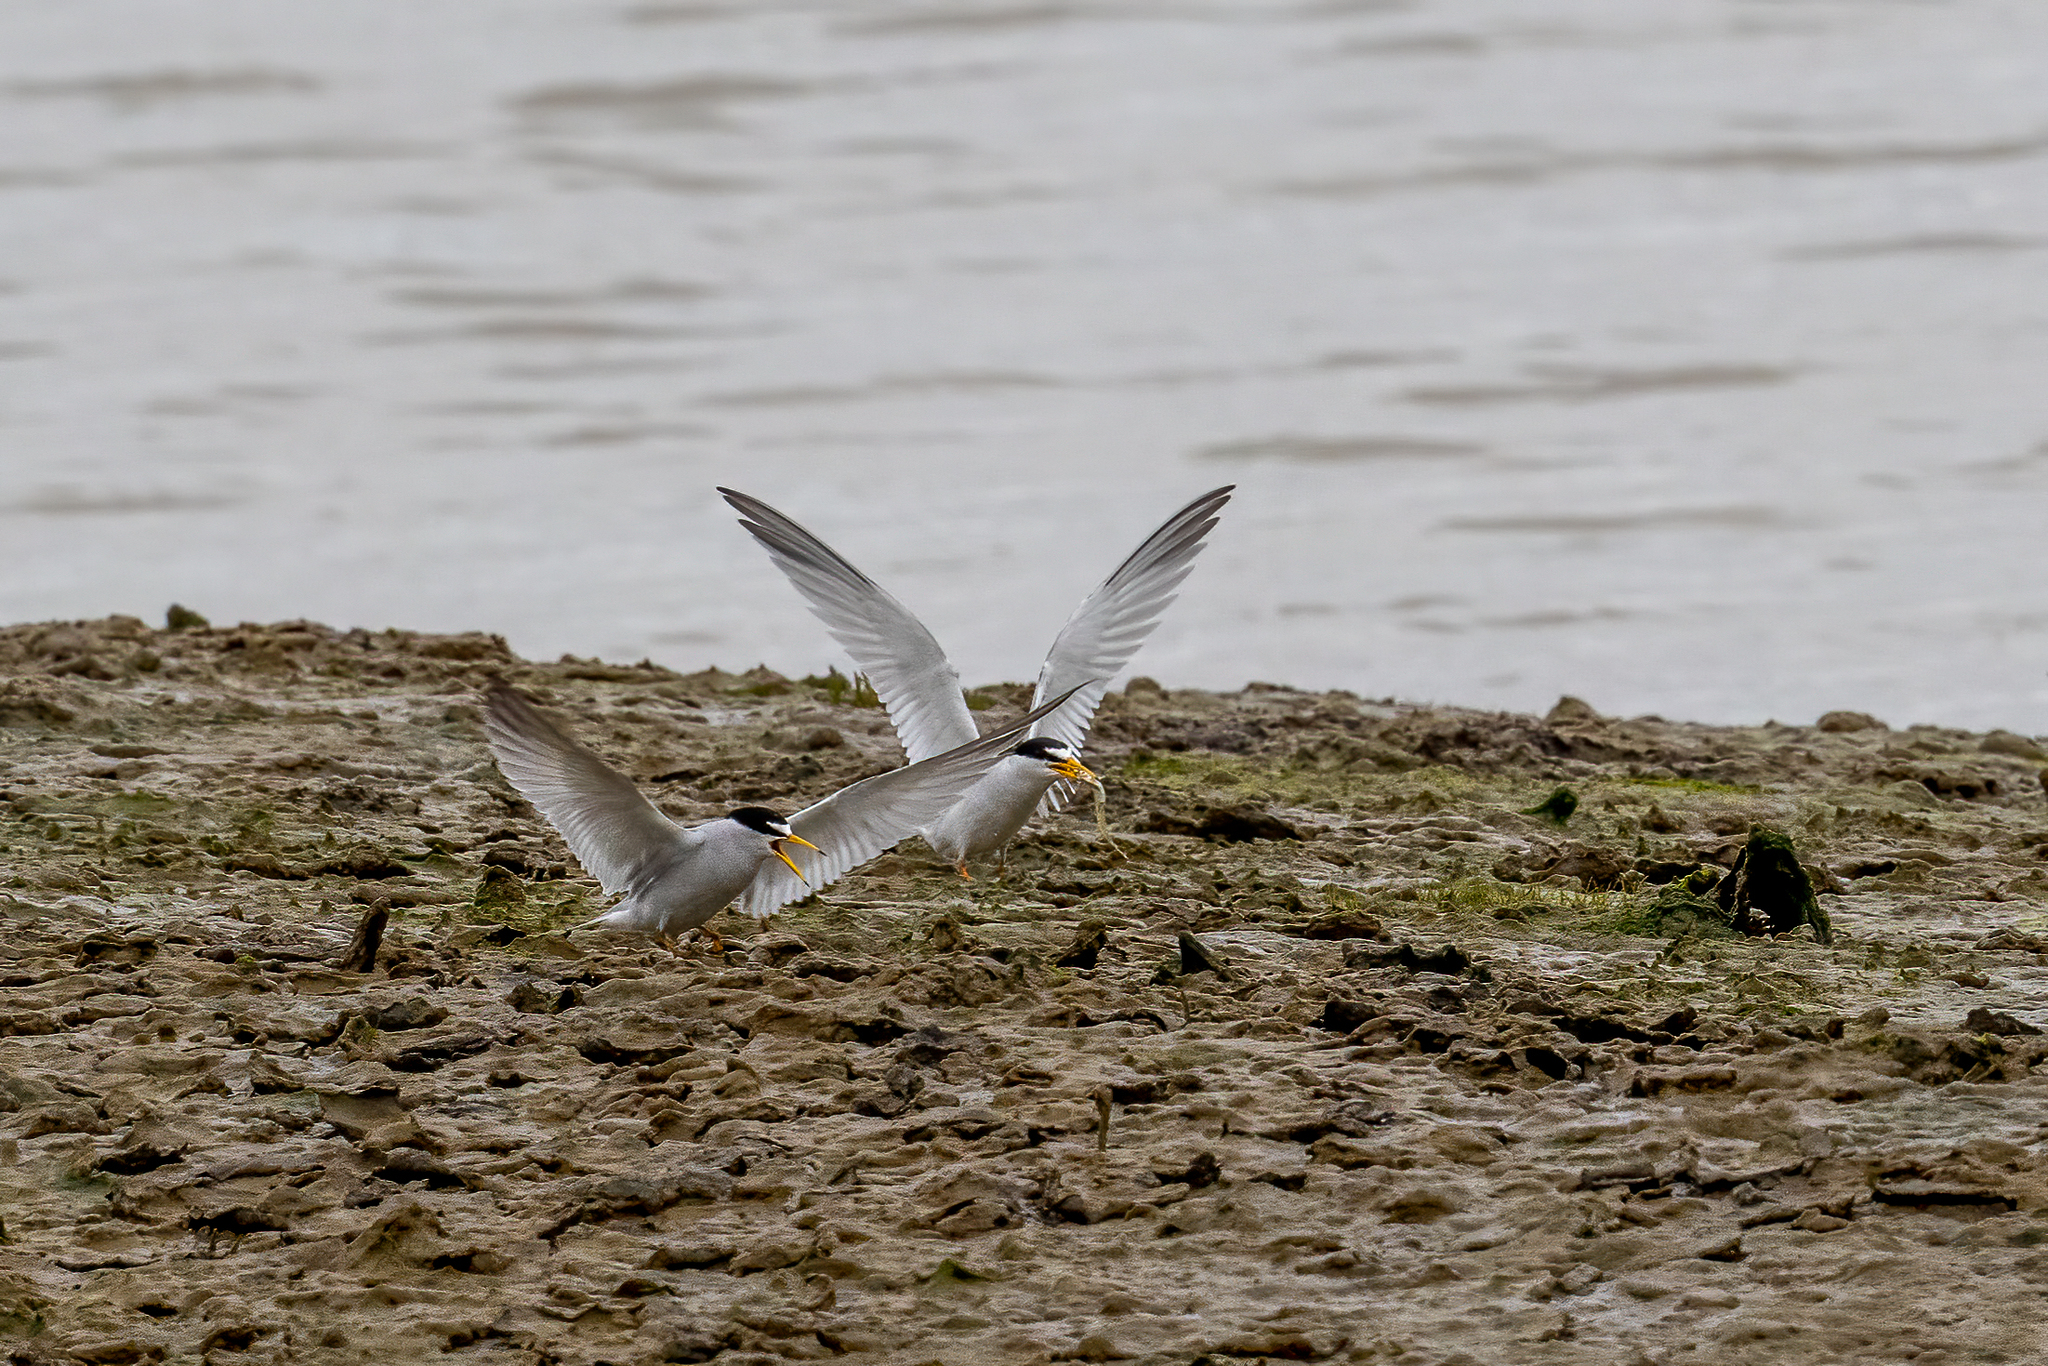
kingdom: Animalia
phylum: Chordata
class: Aves
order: Charadriiformes
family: Laridae
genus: Sternula
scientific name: Sternula antillarum
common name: Least tern
